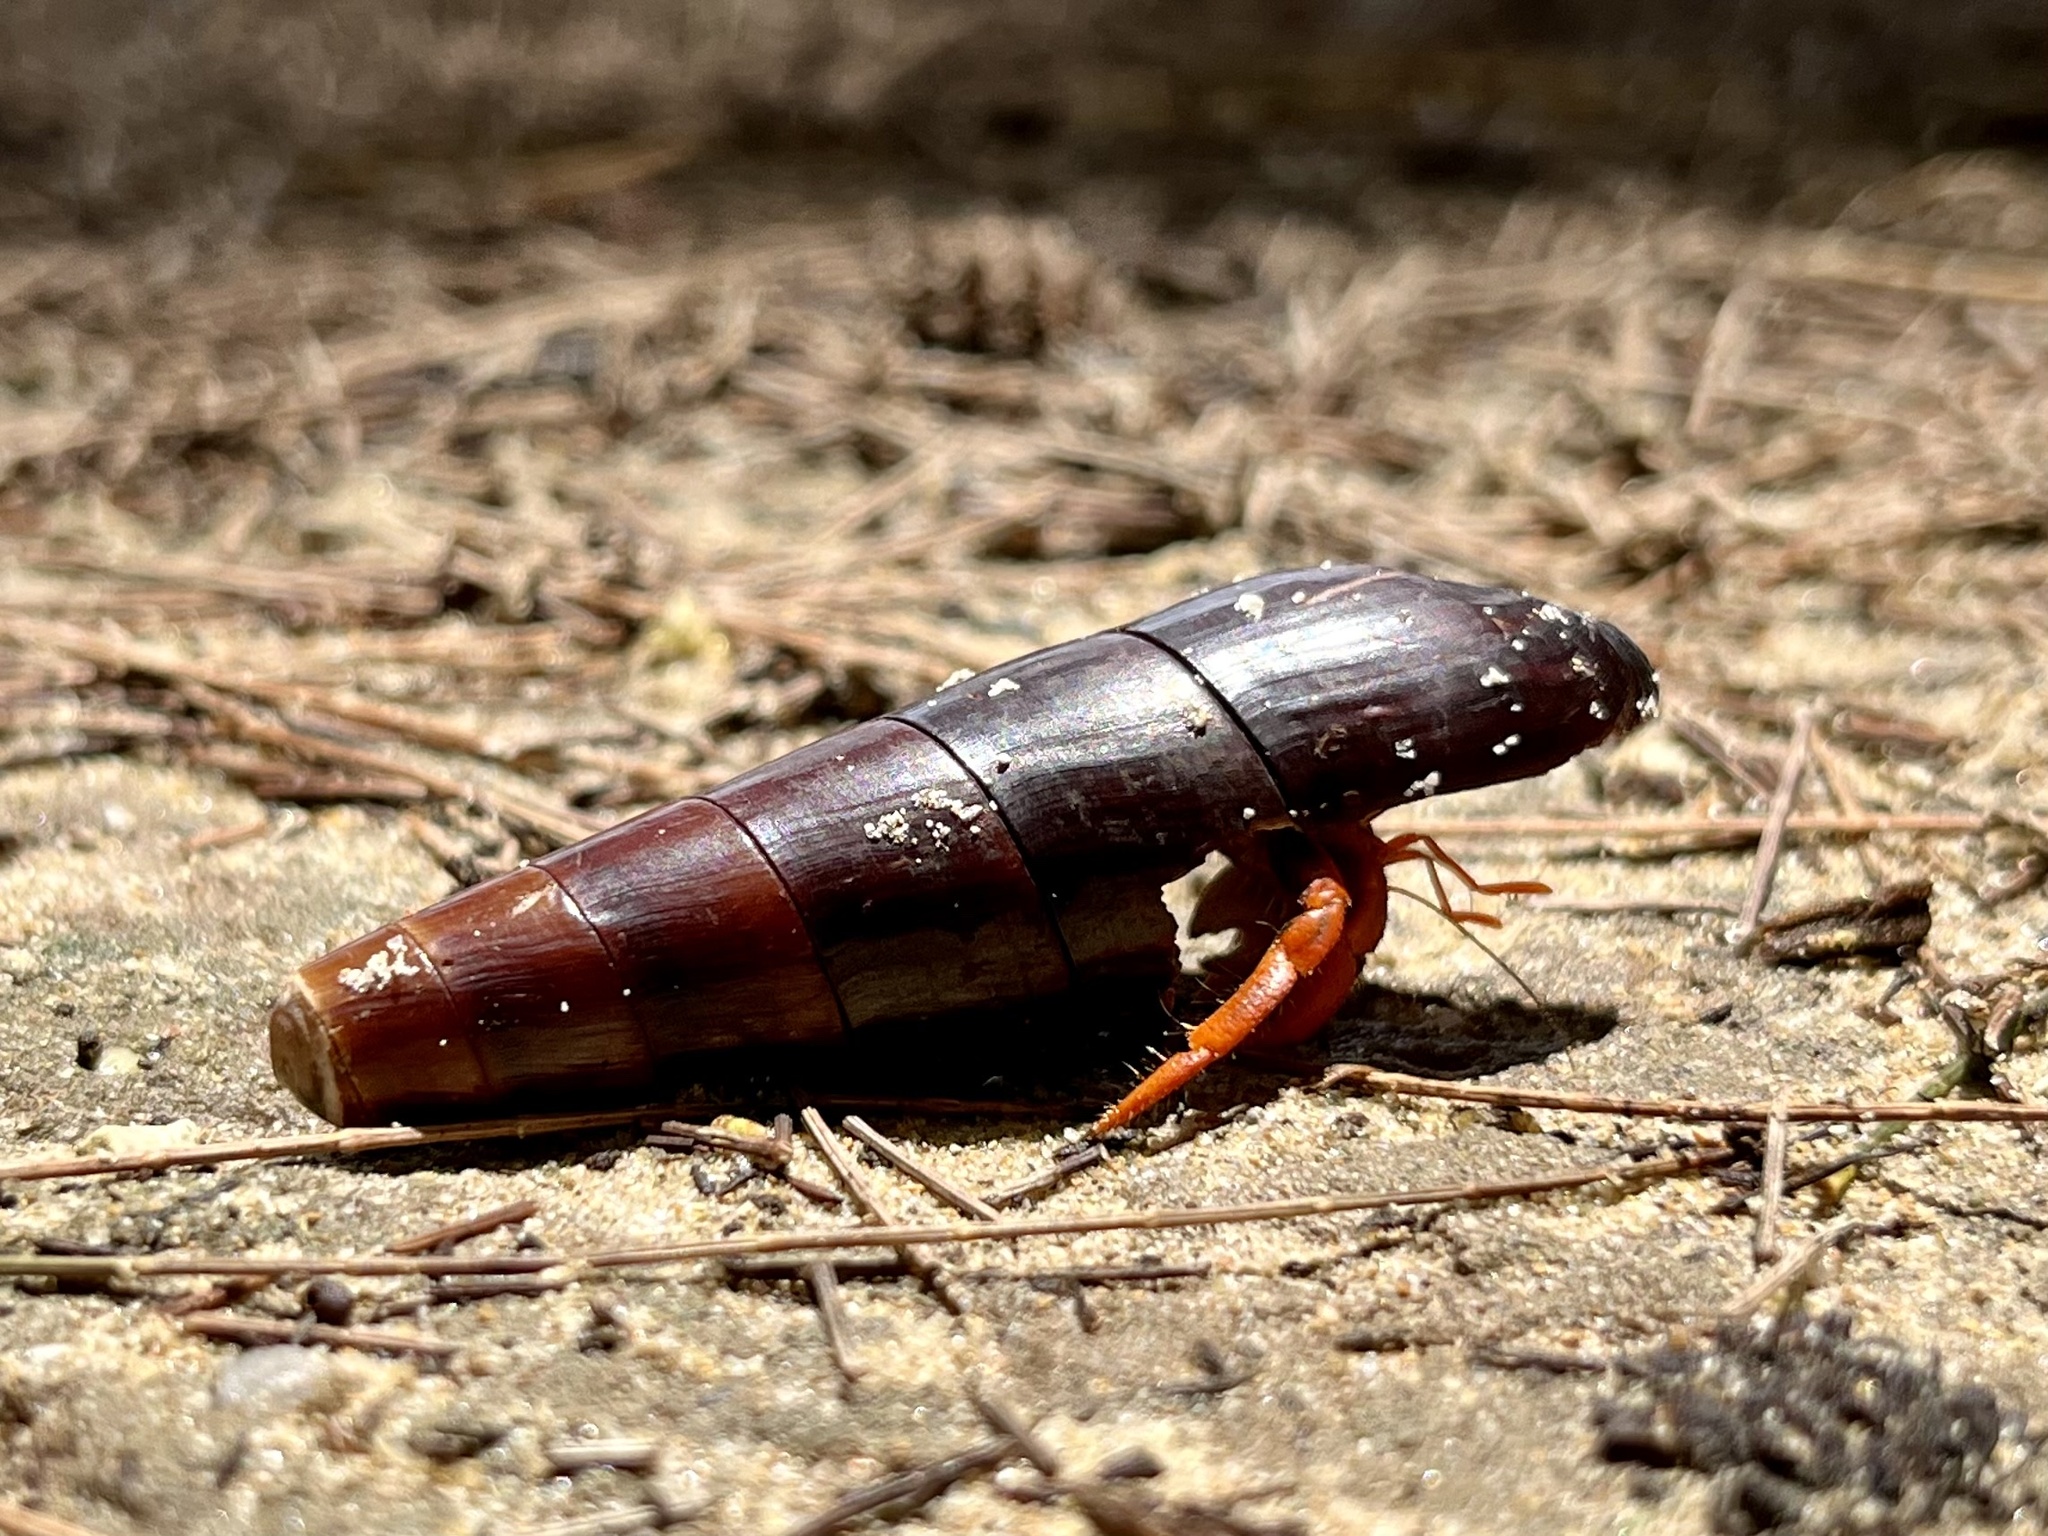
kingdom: Animalia
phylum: Arthropoda
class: Malacostraca
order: Decapoda
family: Coenobitidae
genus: Coenobita
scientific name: Coenobita violascens
